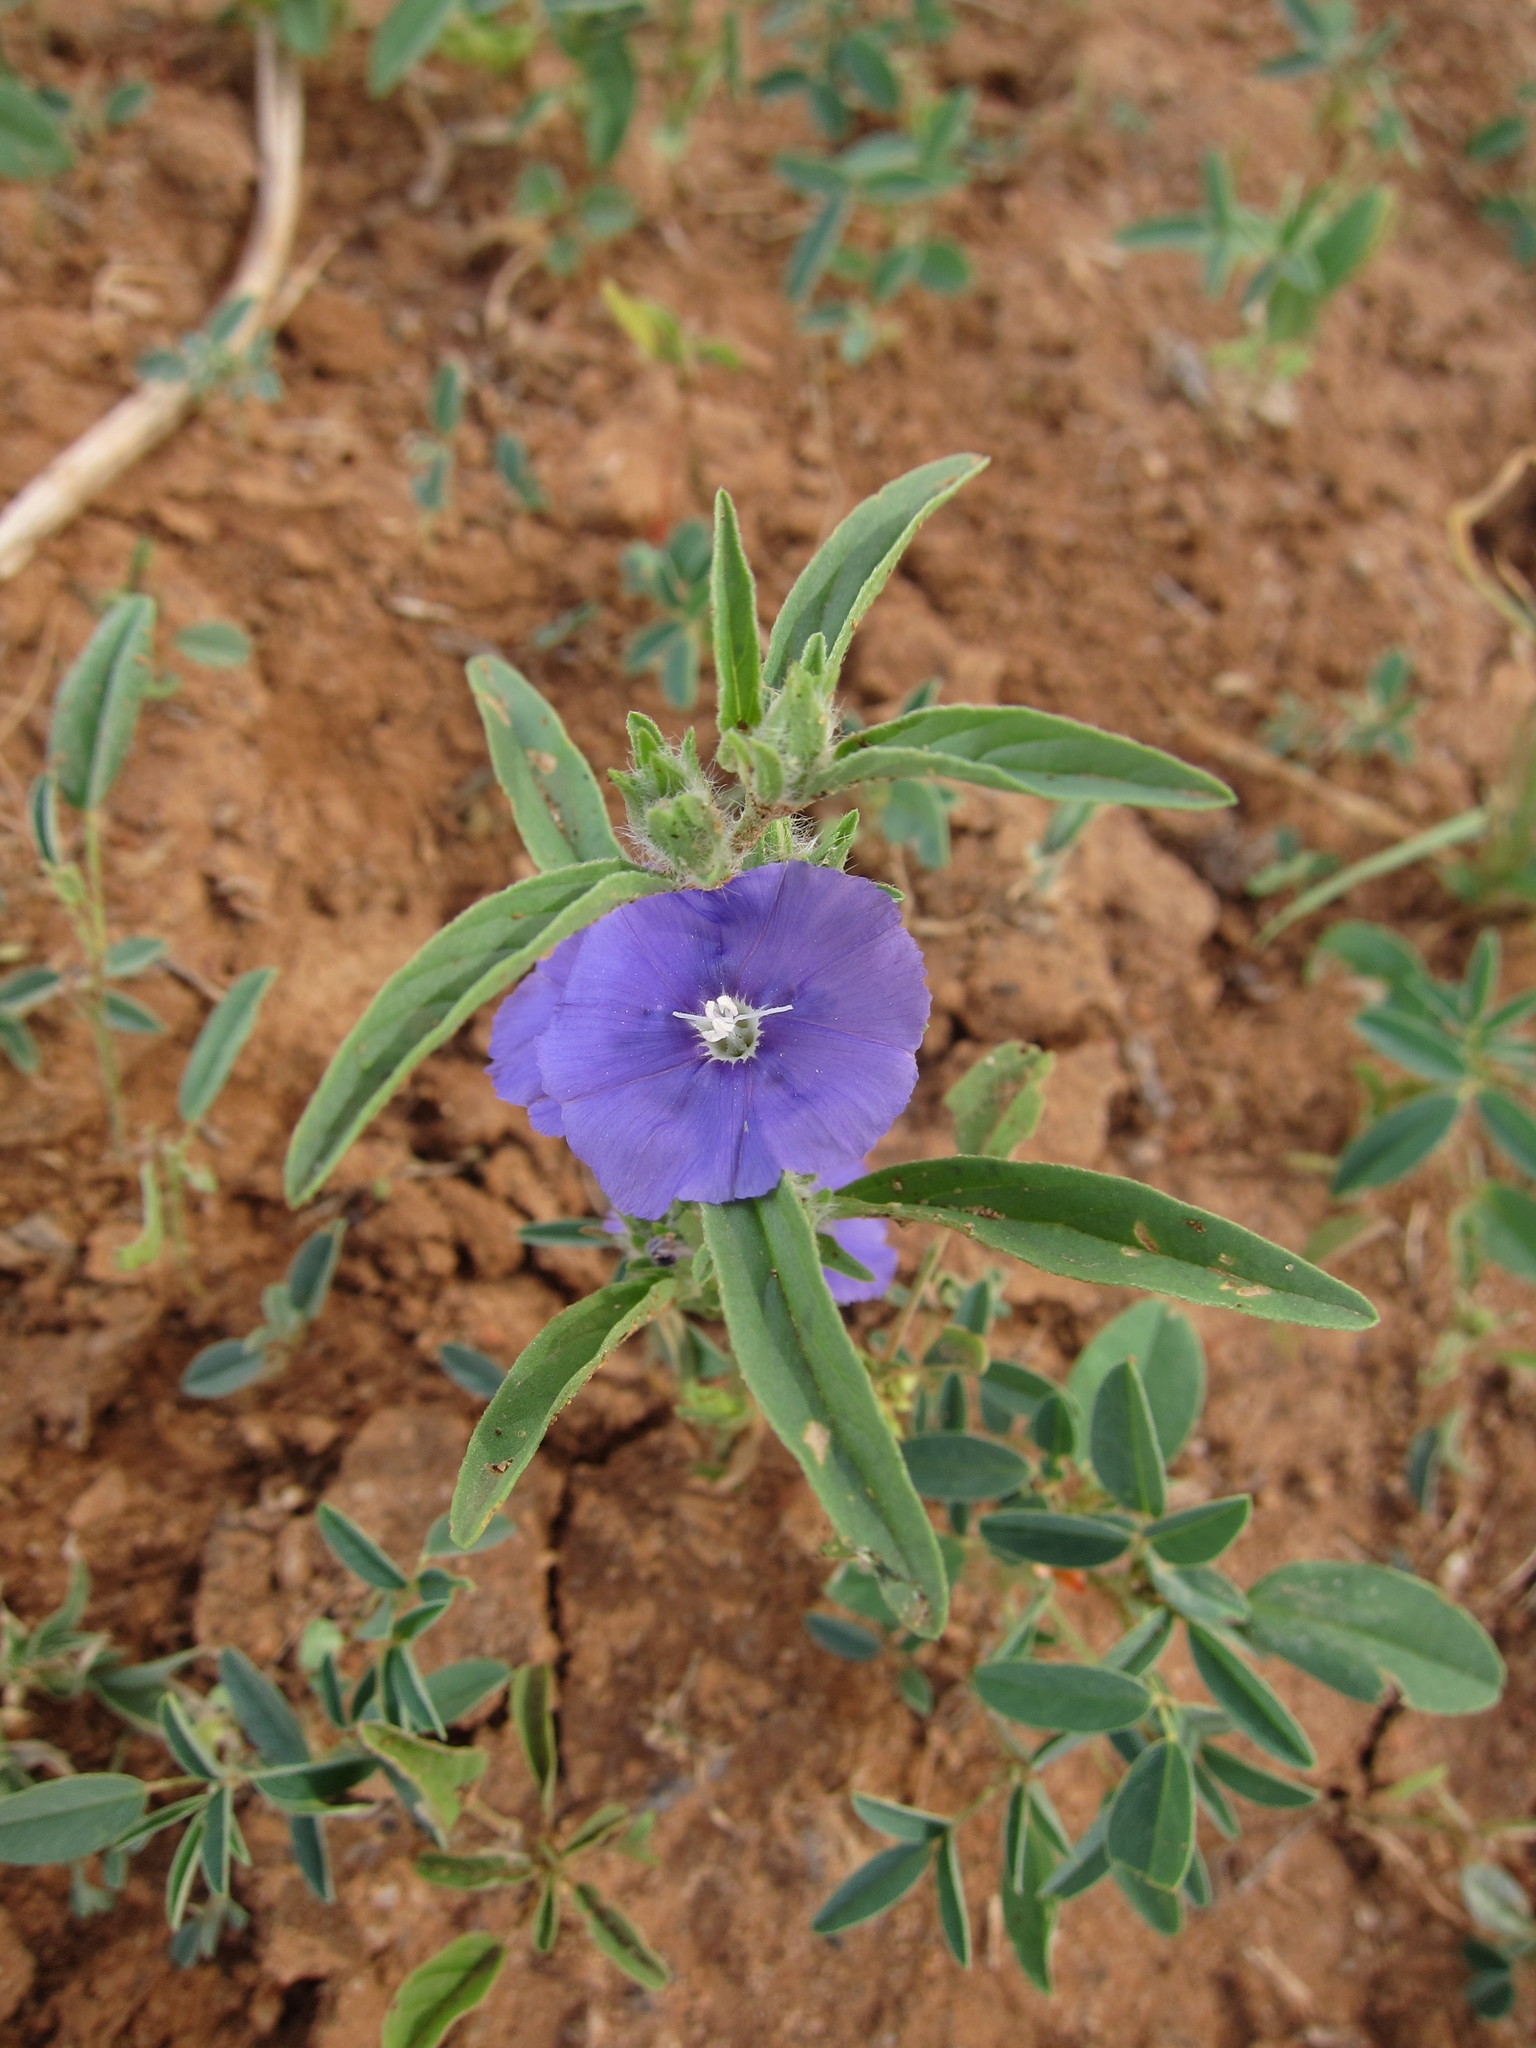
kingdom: Plantae
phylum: Tracheophyta
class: Magnoliopsida
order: Solanales
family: Convolvulaceae
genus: Convolvulus
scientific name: Convolvulus capituliferus
